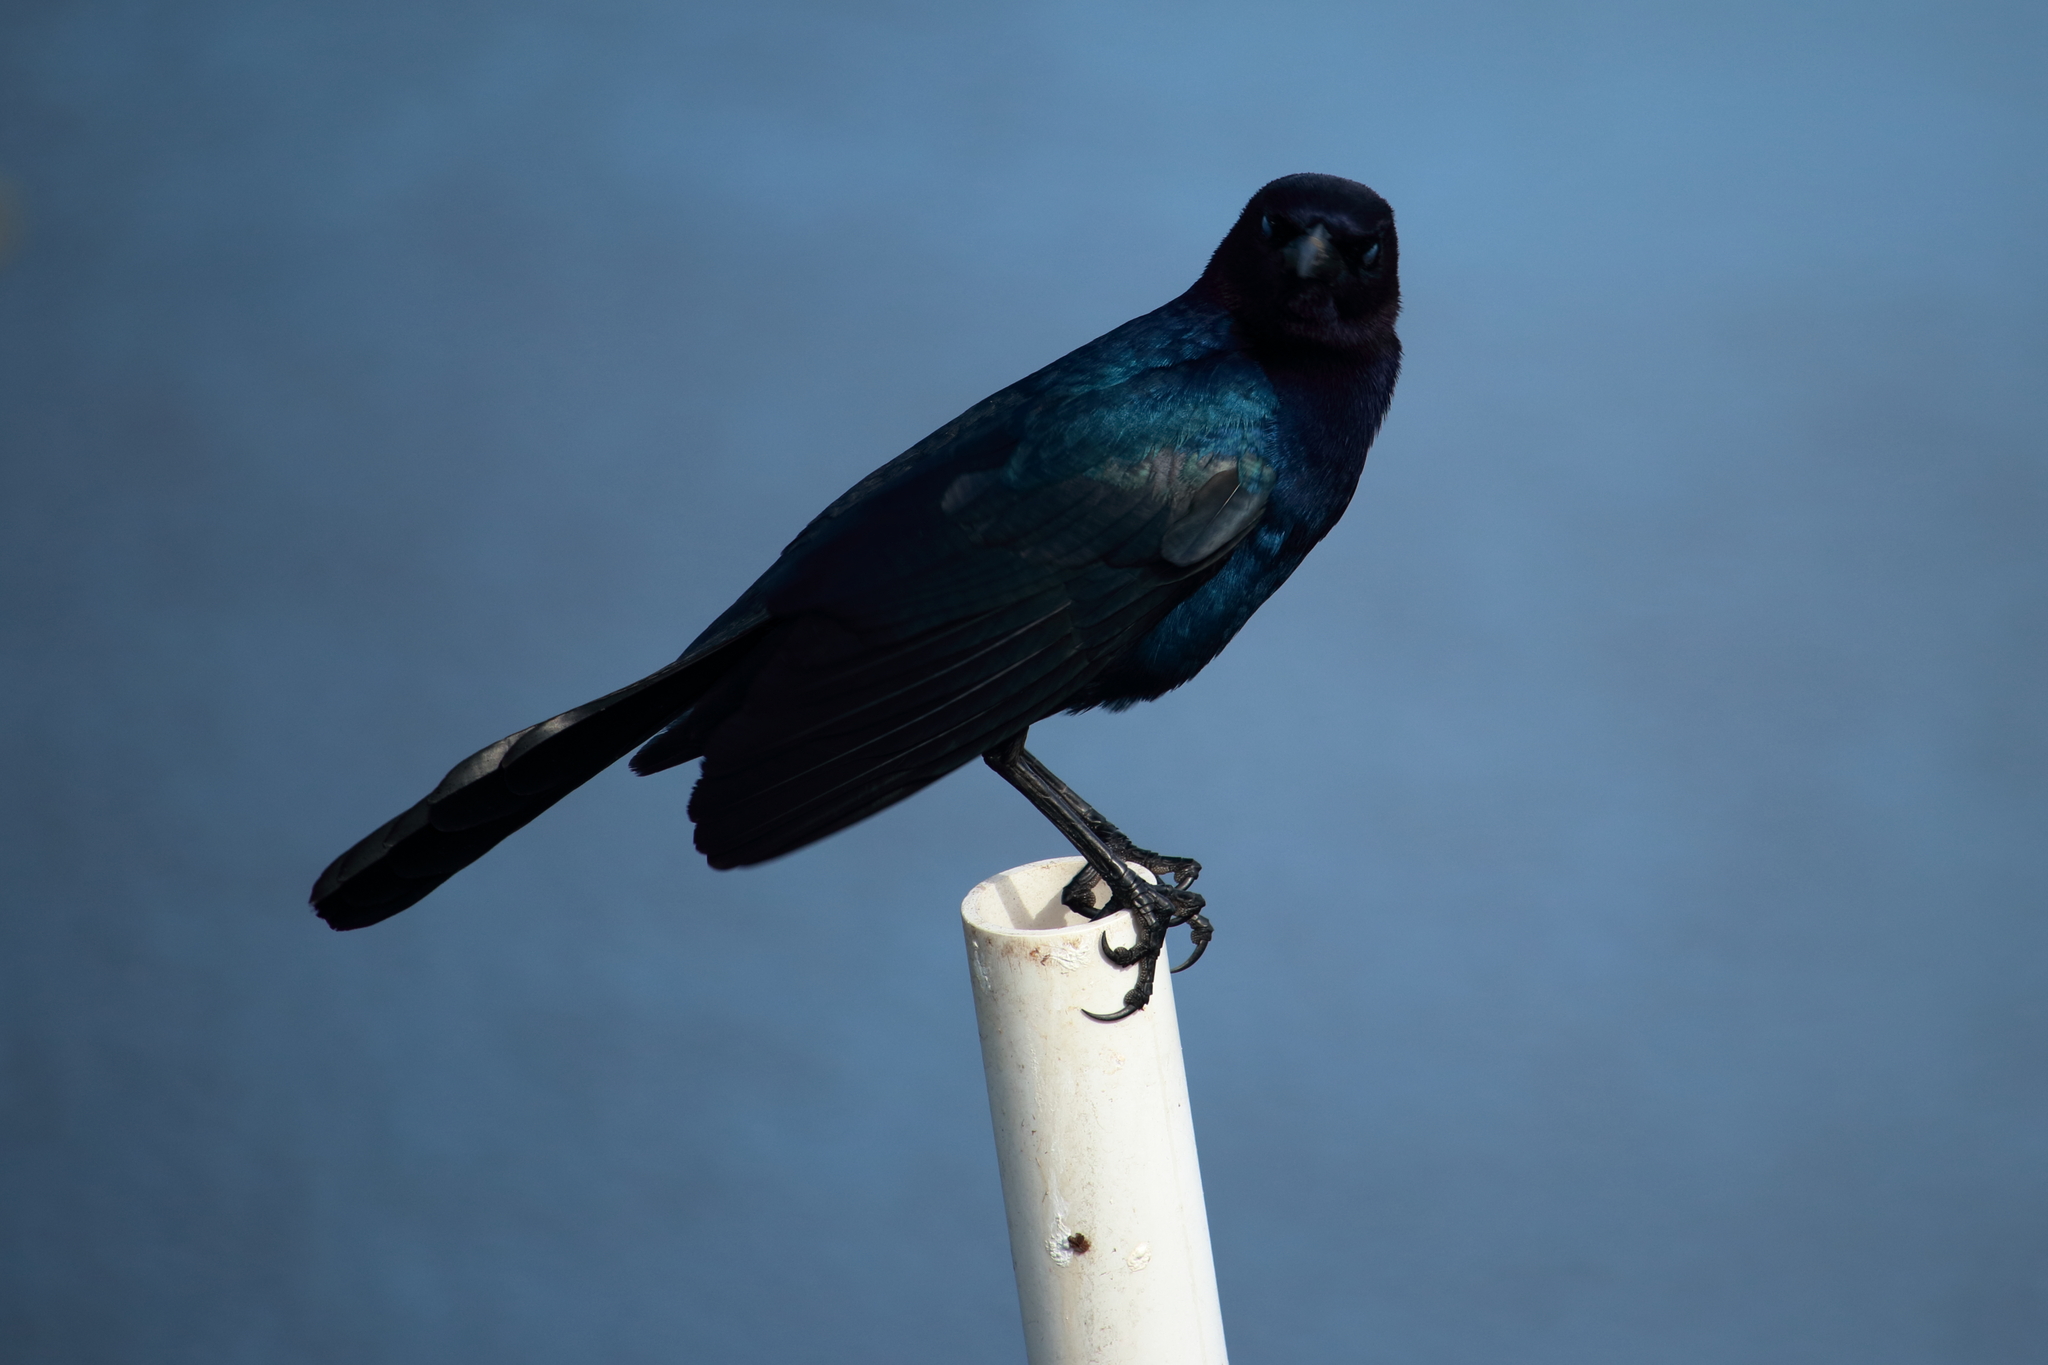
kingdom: Animalia
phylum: Chordata
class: Aves
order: Passeriformes
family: Icteridae
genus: Quiscalus
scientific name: Quiscalus major
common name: Boat-tailed grackle
